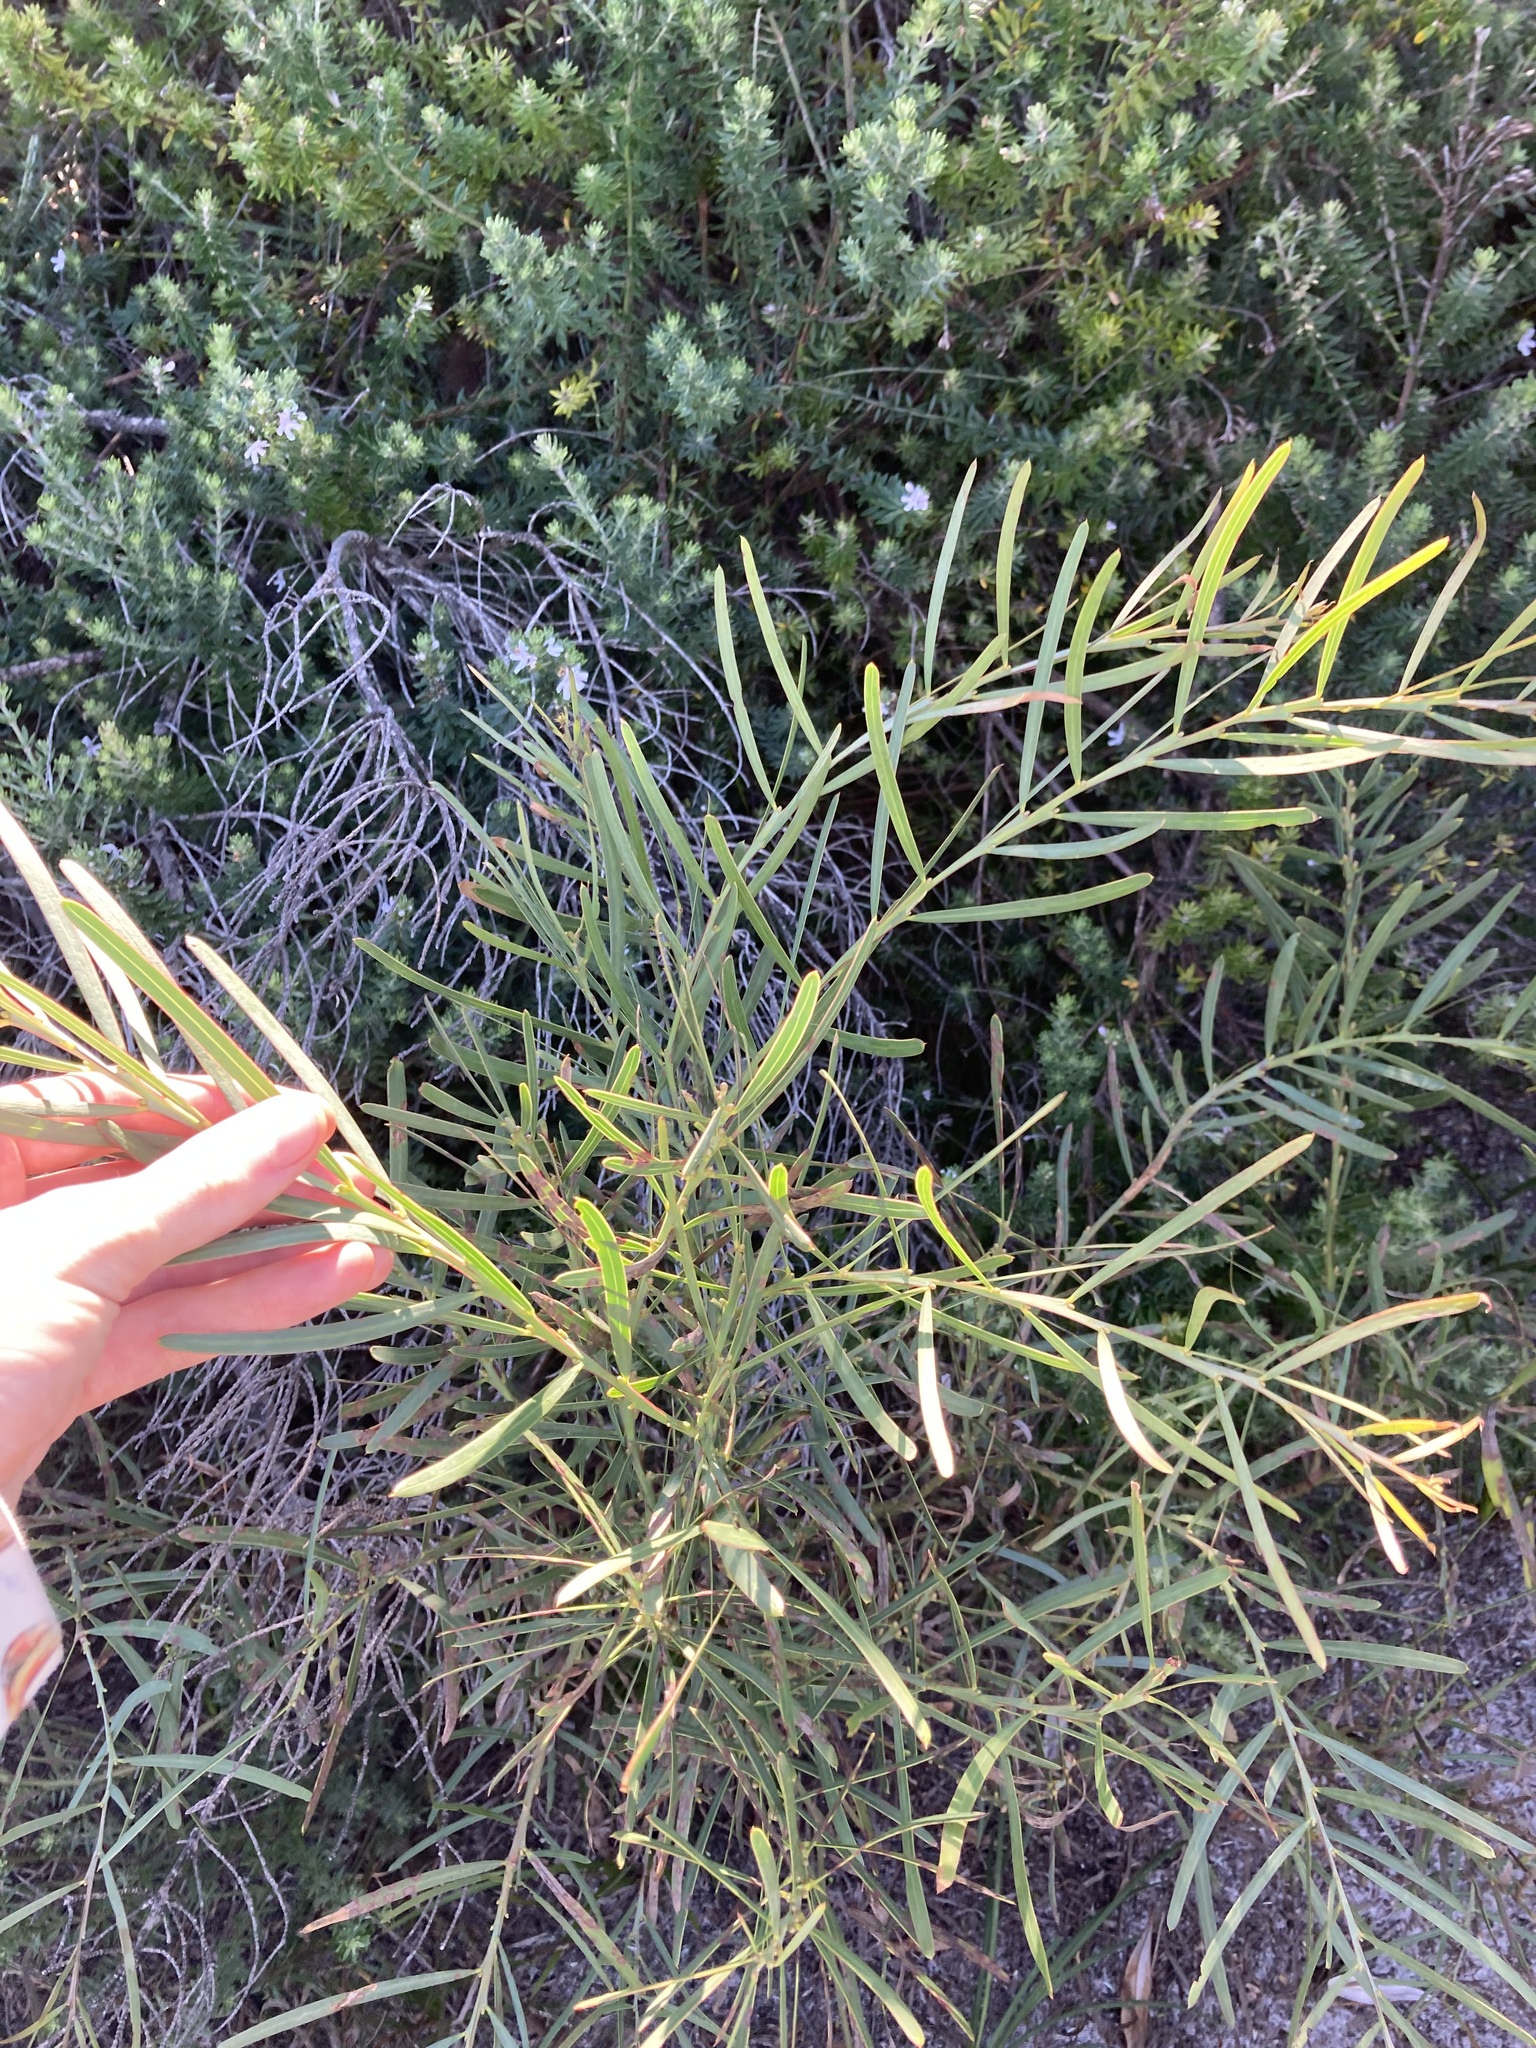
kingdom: Plantae
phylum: Tracheophyta
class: Magnoliopsida
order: Fabales
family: Fabaceae
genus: Acacia
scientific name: Acacia suaveolens
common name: Sweet acacia
